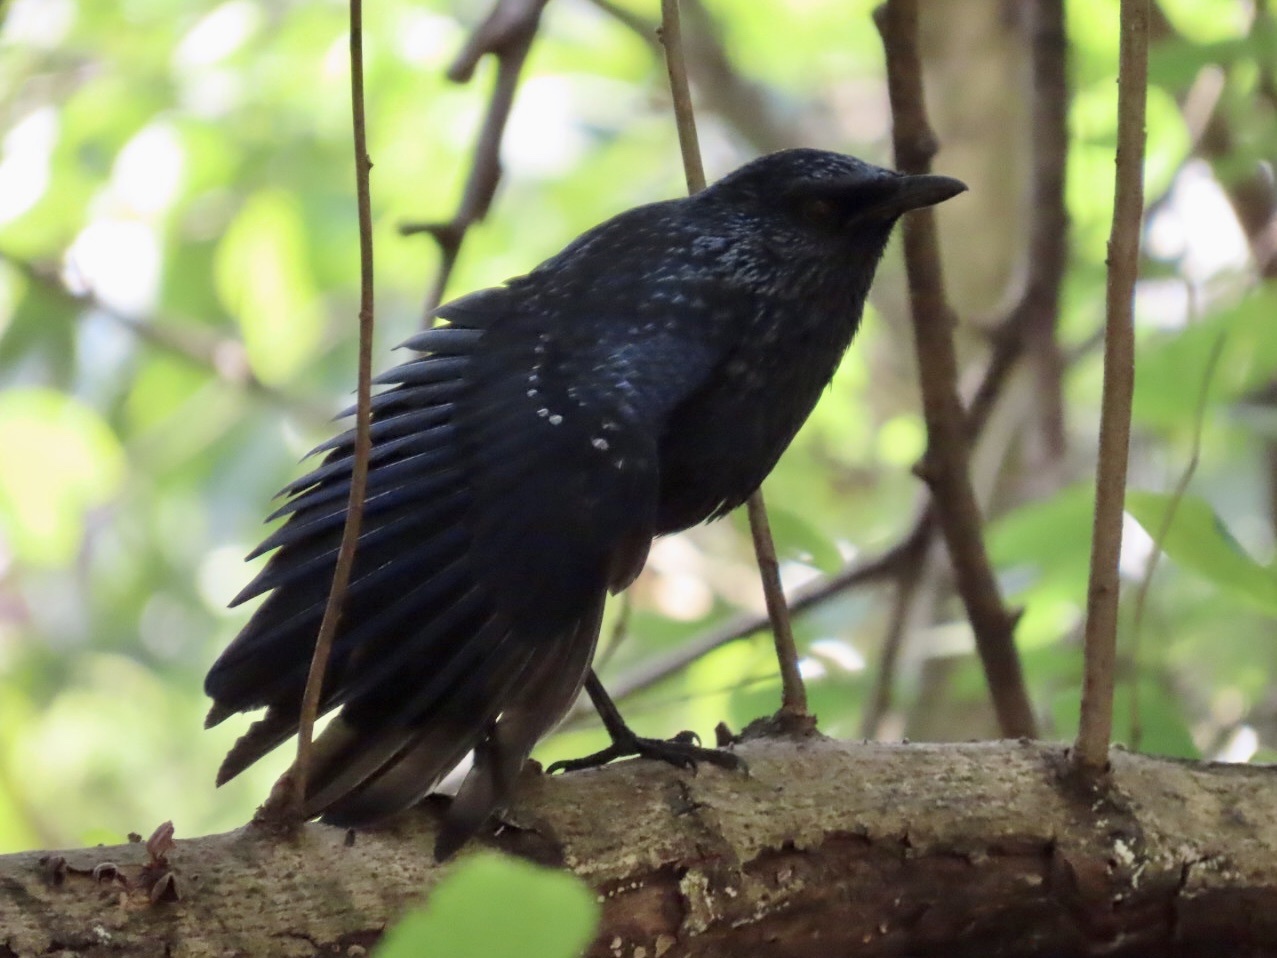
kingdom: Animalia
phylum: Chordata
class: Aves
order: Passeriformes
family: Muscicapidae
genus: Myophonus
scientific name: Myophonus caeruleus
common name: Blue whistling-thrush
